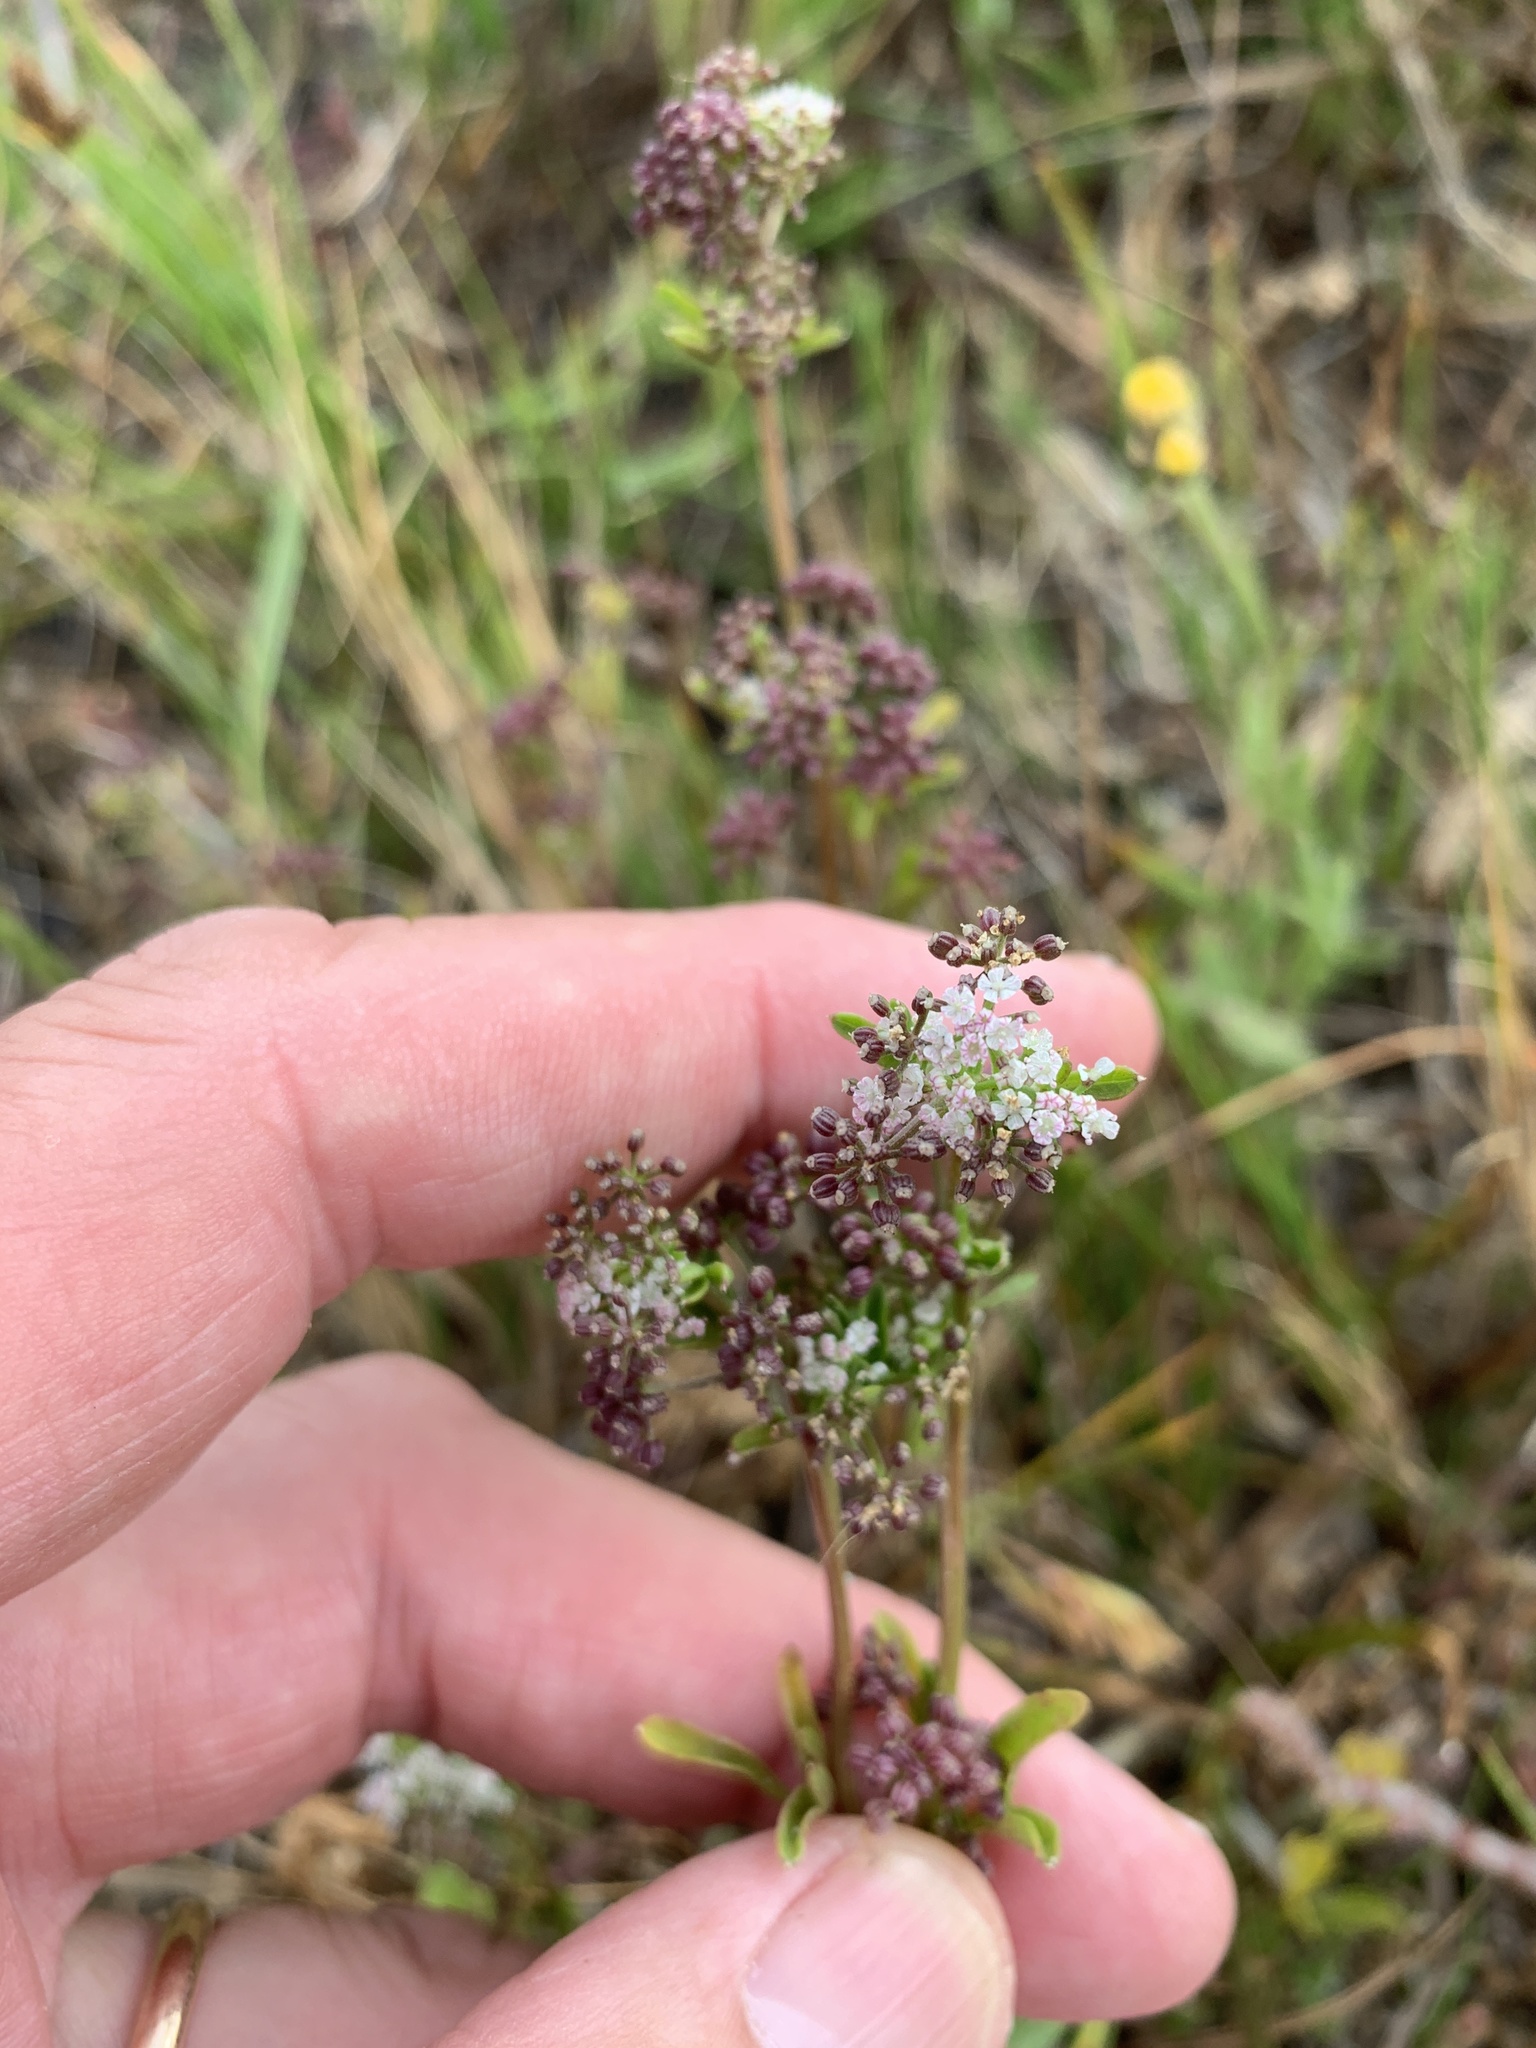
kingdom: Plantae
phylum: Tracheophyta
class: Magnoliopsida
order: Apiales
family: Apiaceae
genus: Apium
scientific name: Apium decumbens
